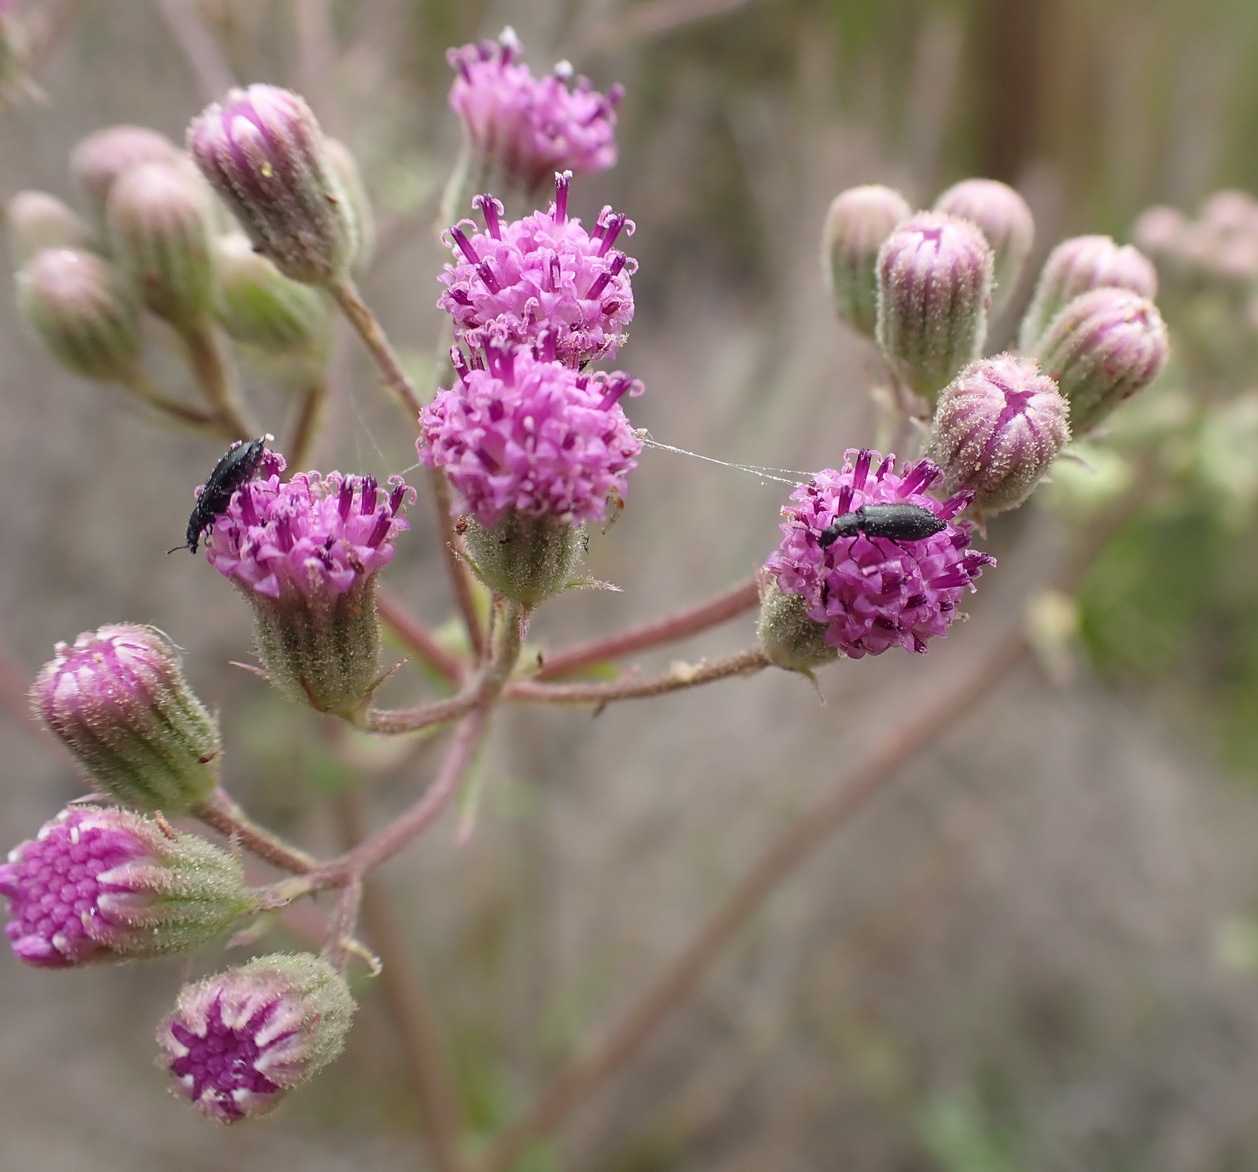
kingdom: Plantae
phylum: Tracheophyta
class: Magnoliopsida
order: Asterales
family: Asteraceae
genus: Senecio
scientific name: Senecio purpureus
